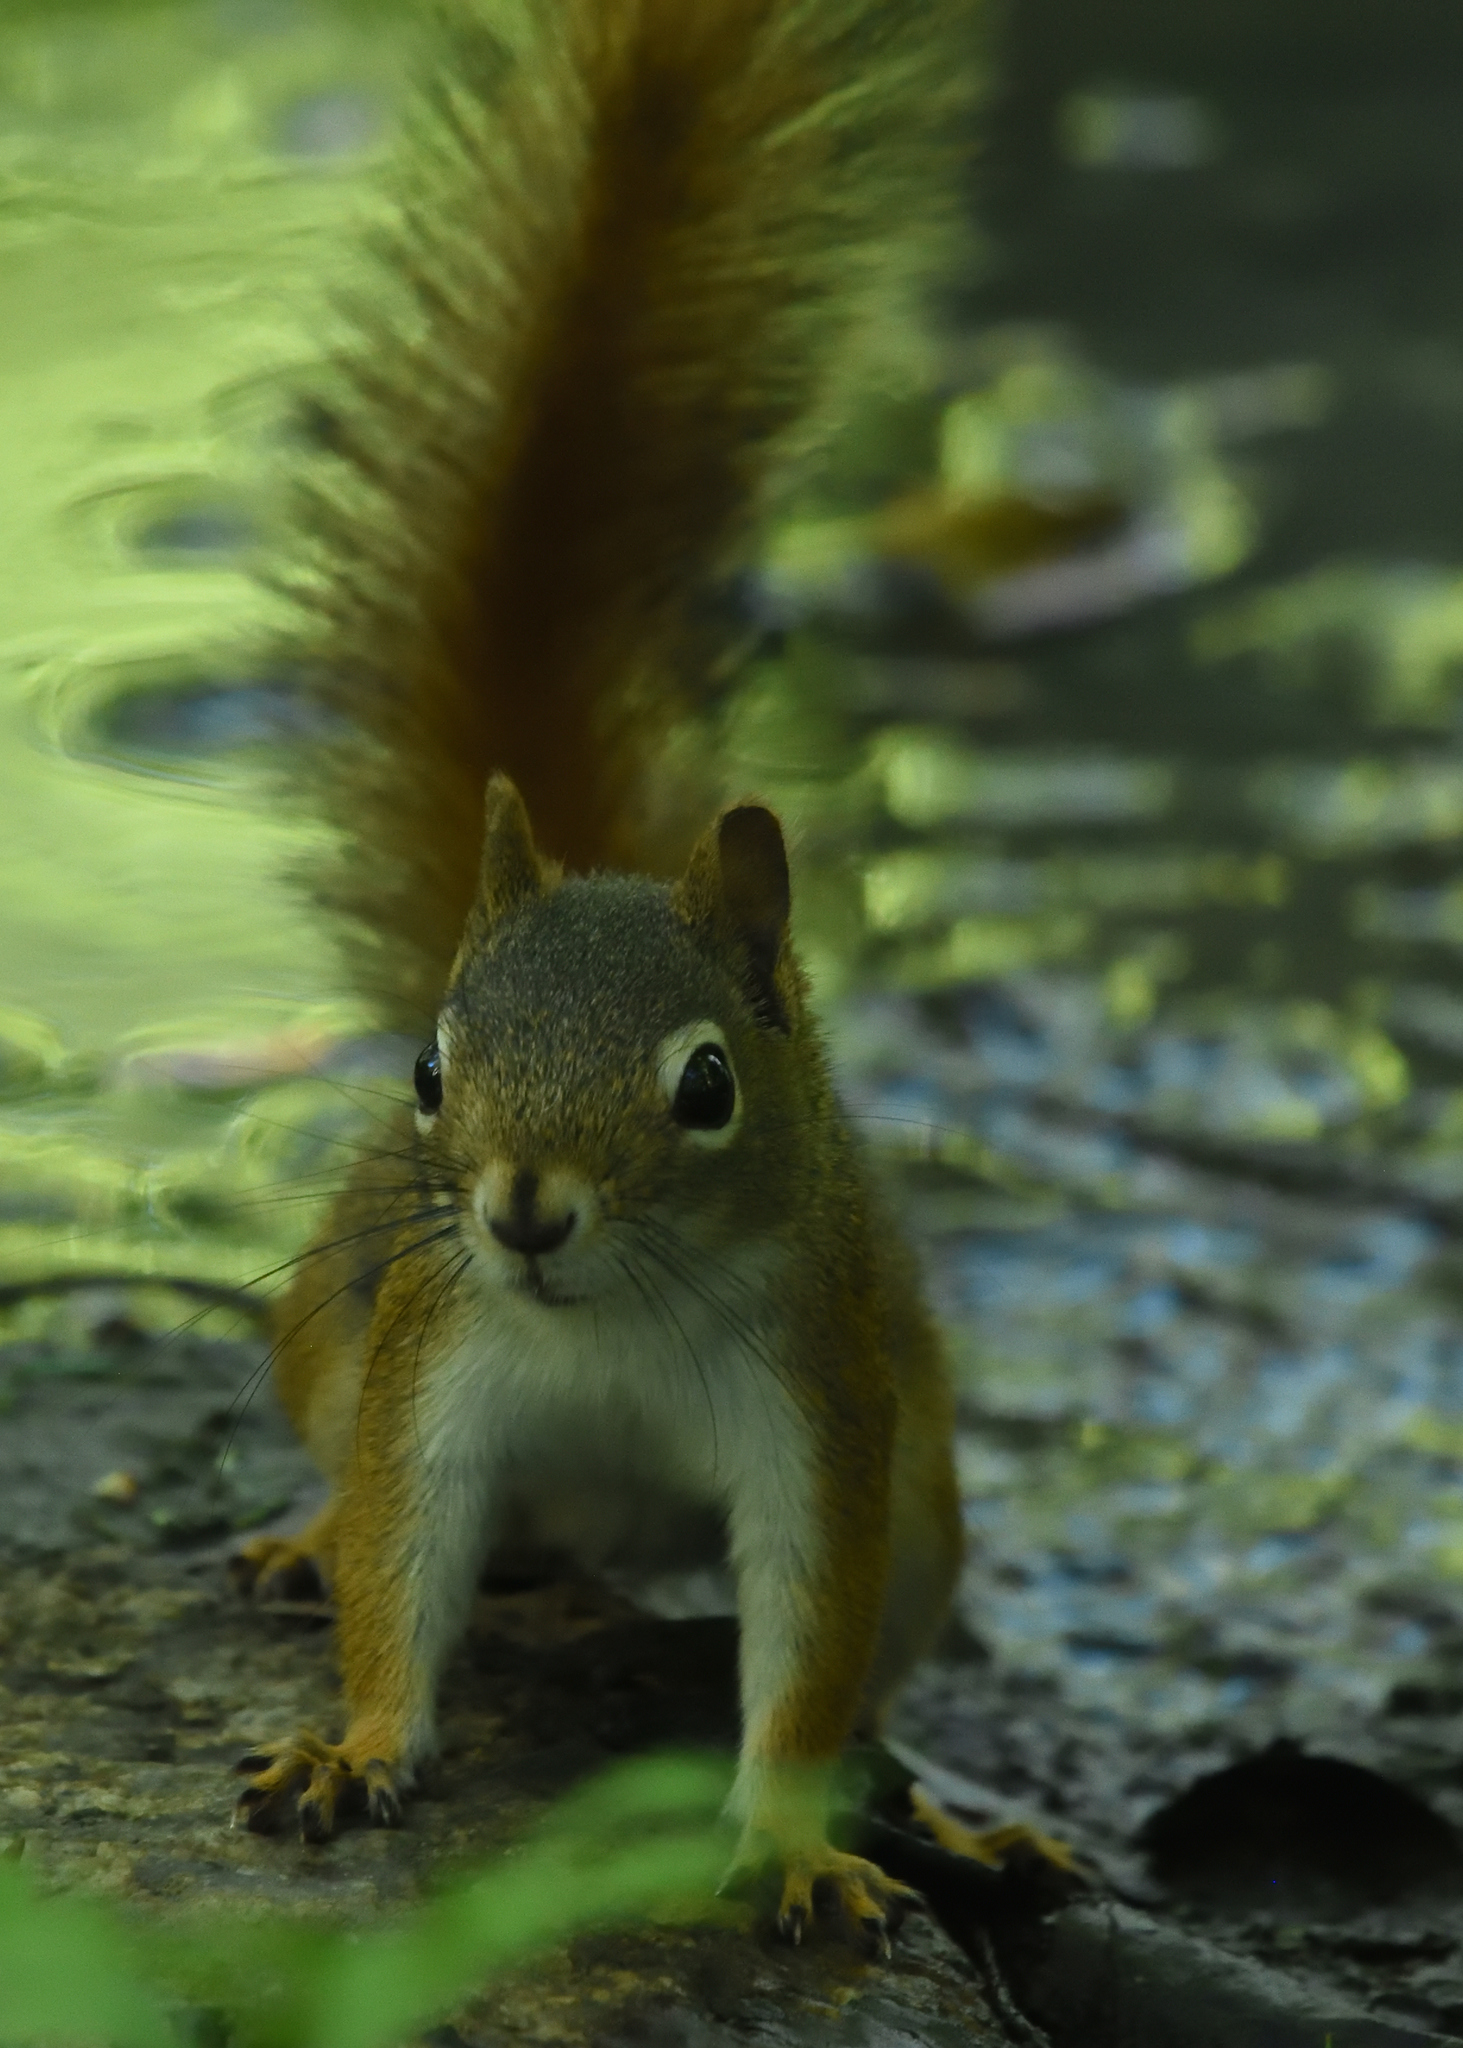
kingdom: Animalia
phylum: Chordata
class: Mammalia
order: Rodentia
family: Sciuridae
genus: Tamiasciurus
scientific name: Tamiasciurus hudsonicus
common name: Red squirrel
